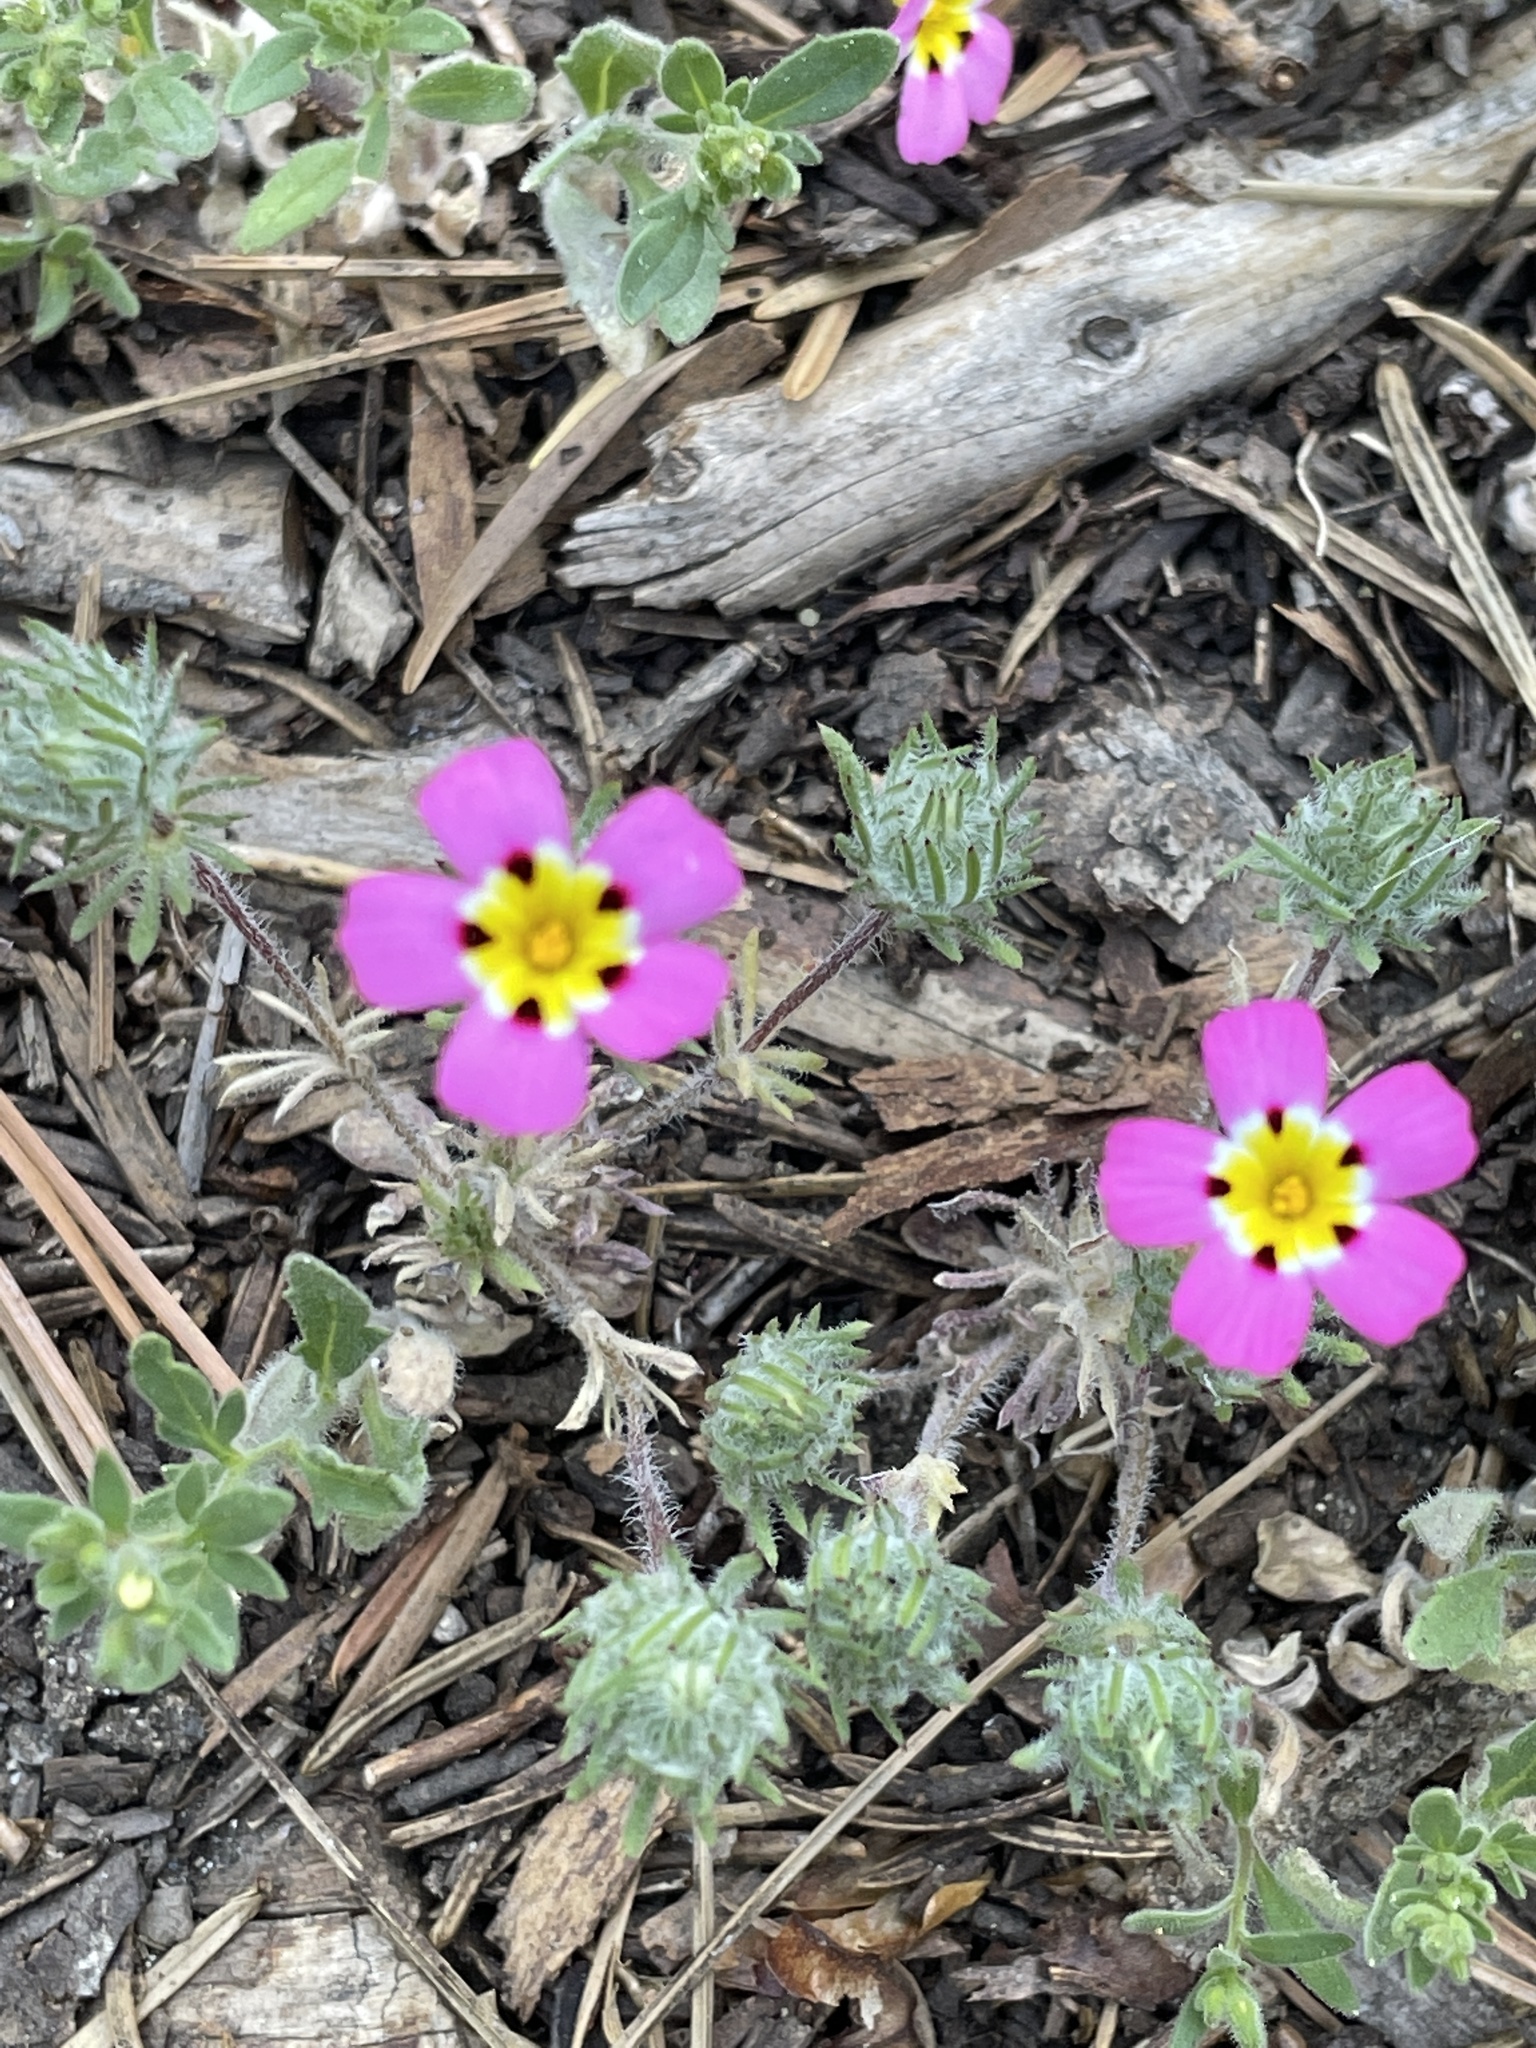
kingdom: Plantae
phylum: Tracheophyta
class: Magnoliopsida
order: Ericales
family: Polemoniaceae
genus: Leptosiphon
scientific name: Leptosiphon ciliatus
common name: Whiskerbrush
